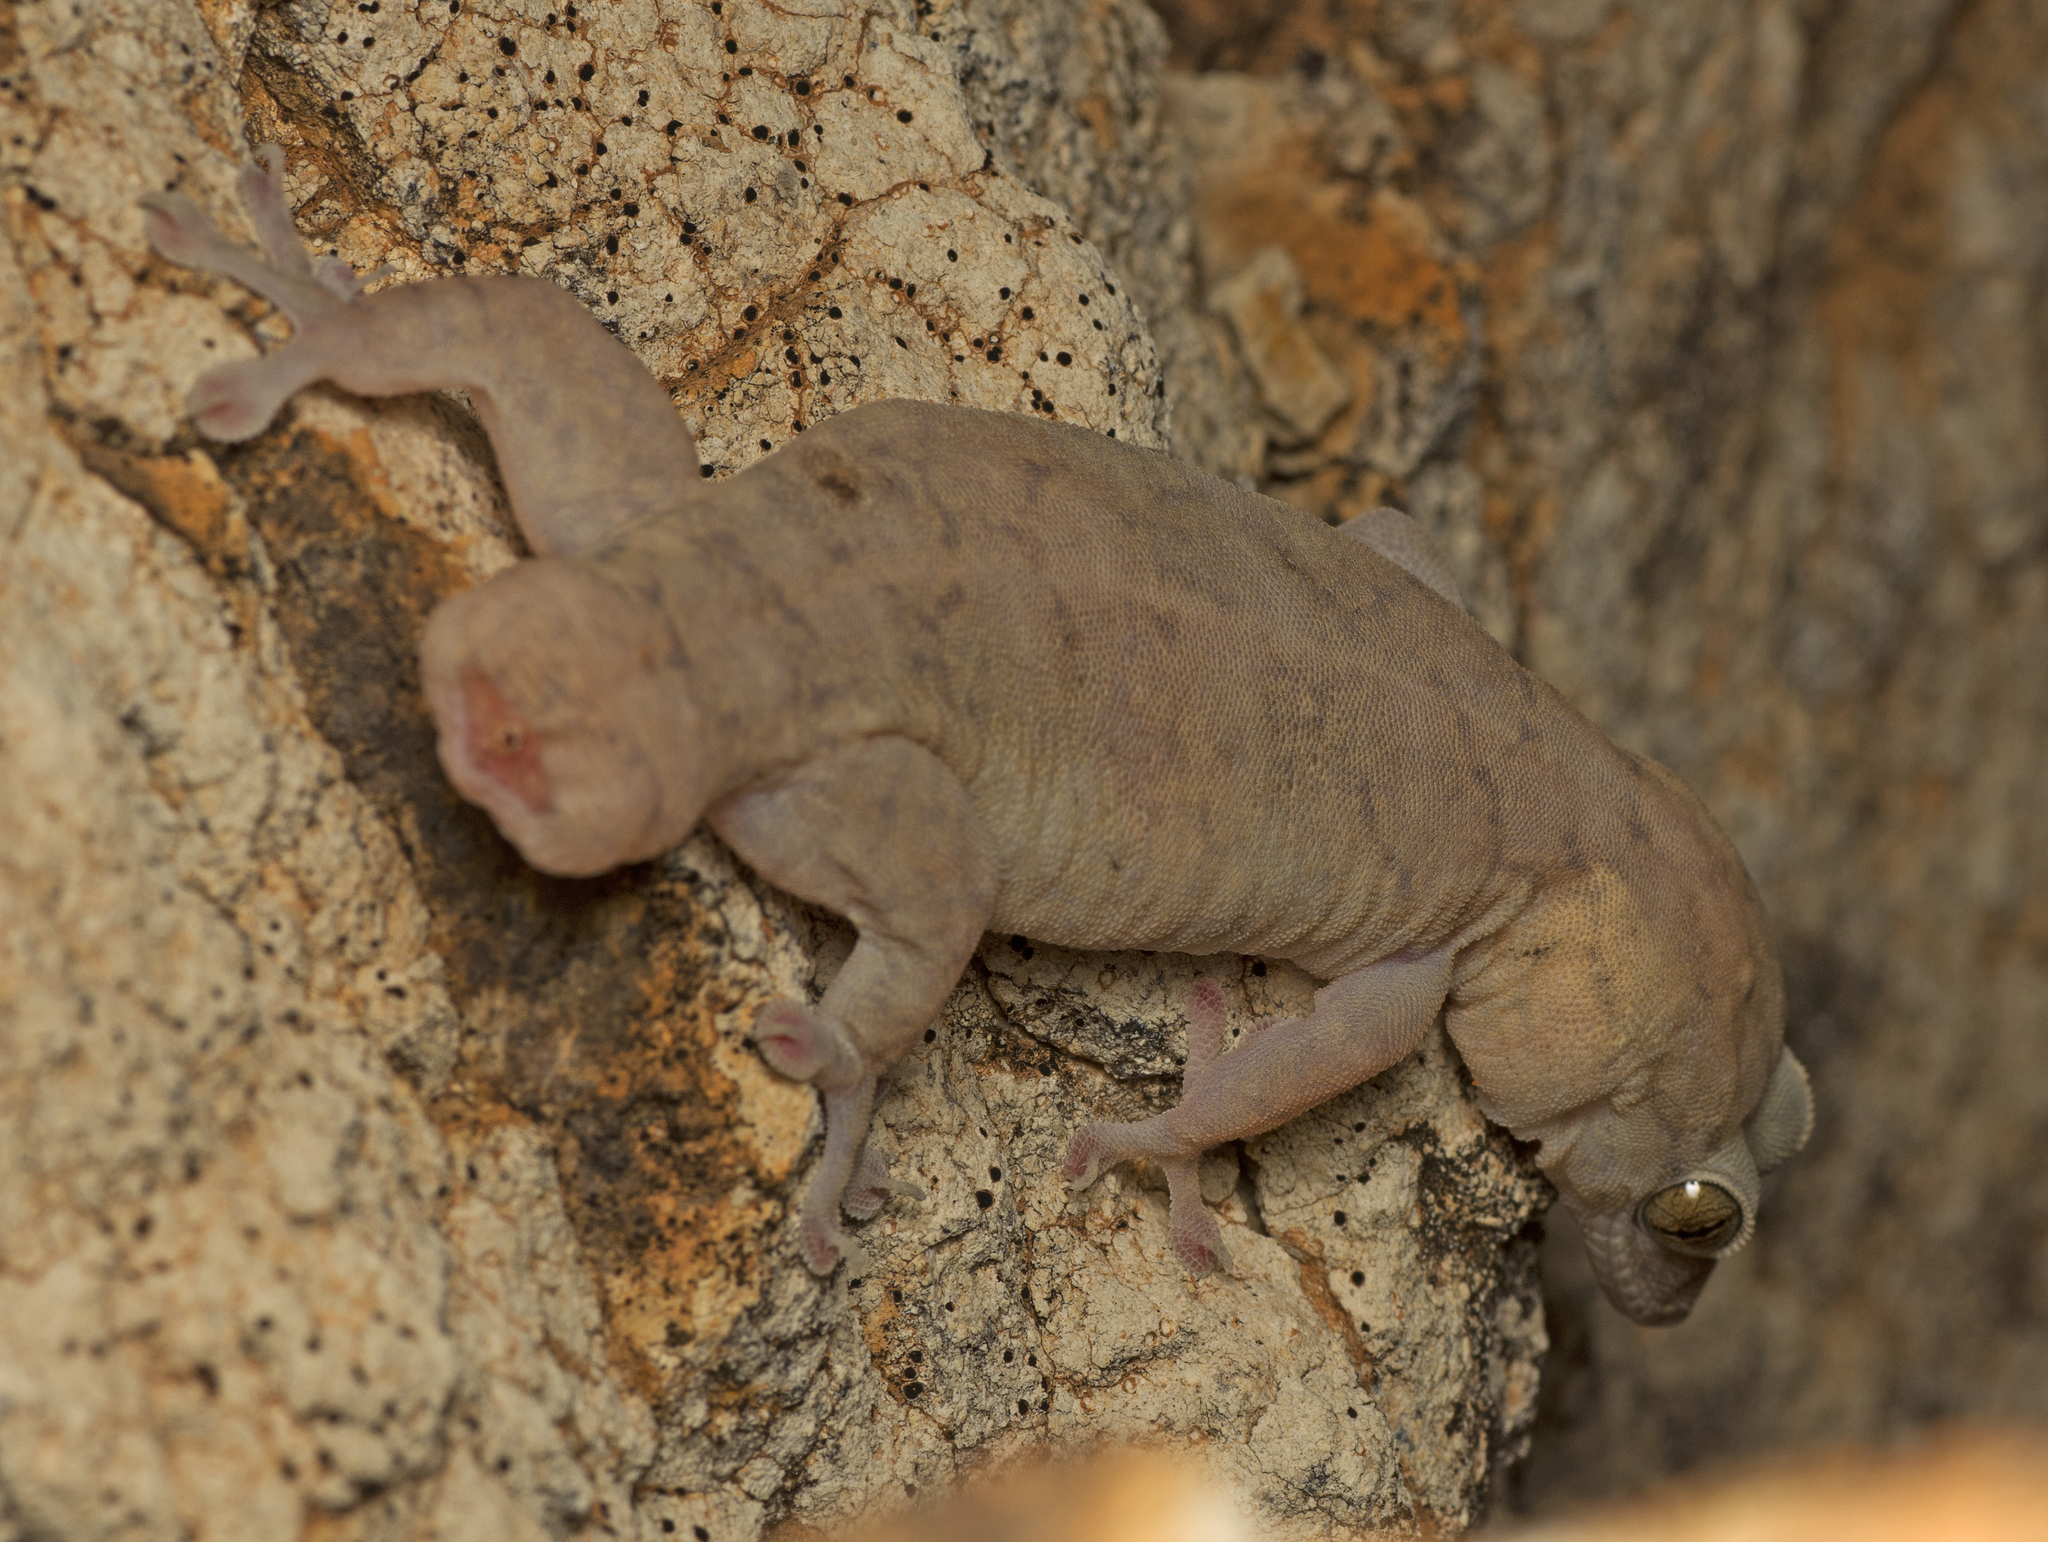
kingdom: Animalia
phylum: Chordata
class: Squamata
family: Gekkonidae
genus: Gehyra
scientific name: Gehyra robusta
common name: Robust dtella
